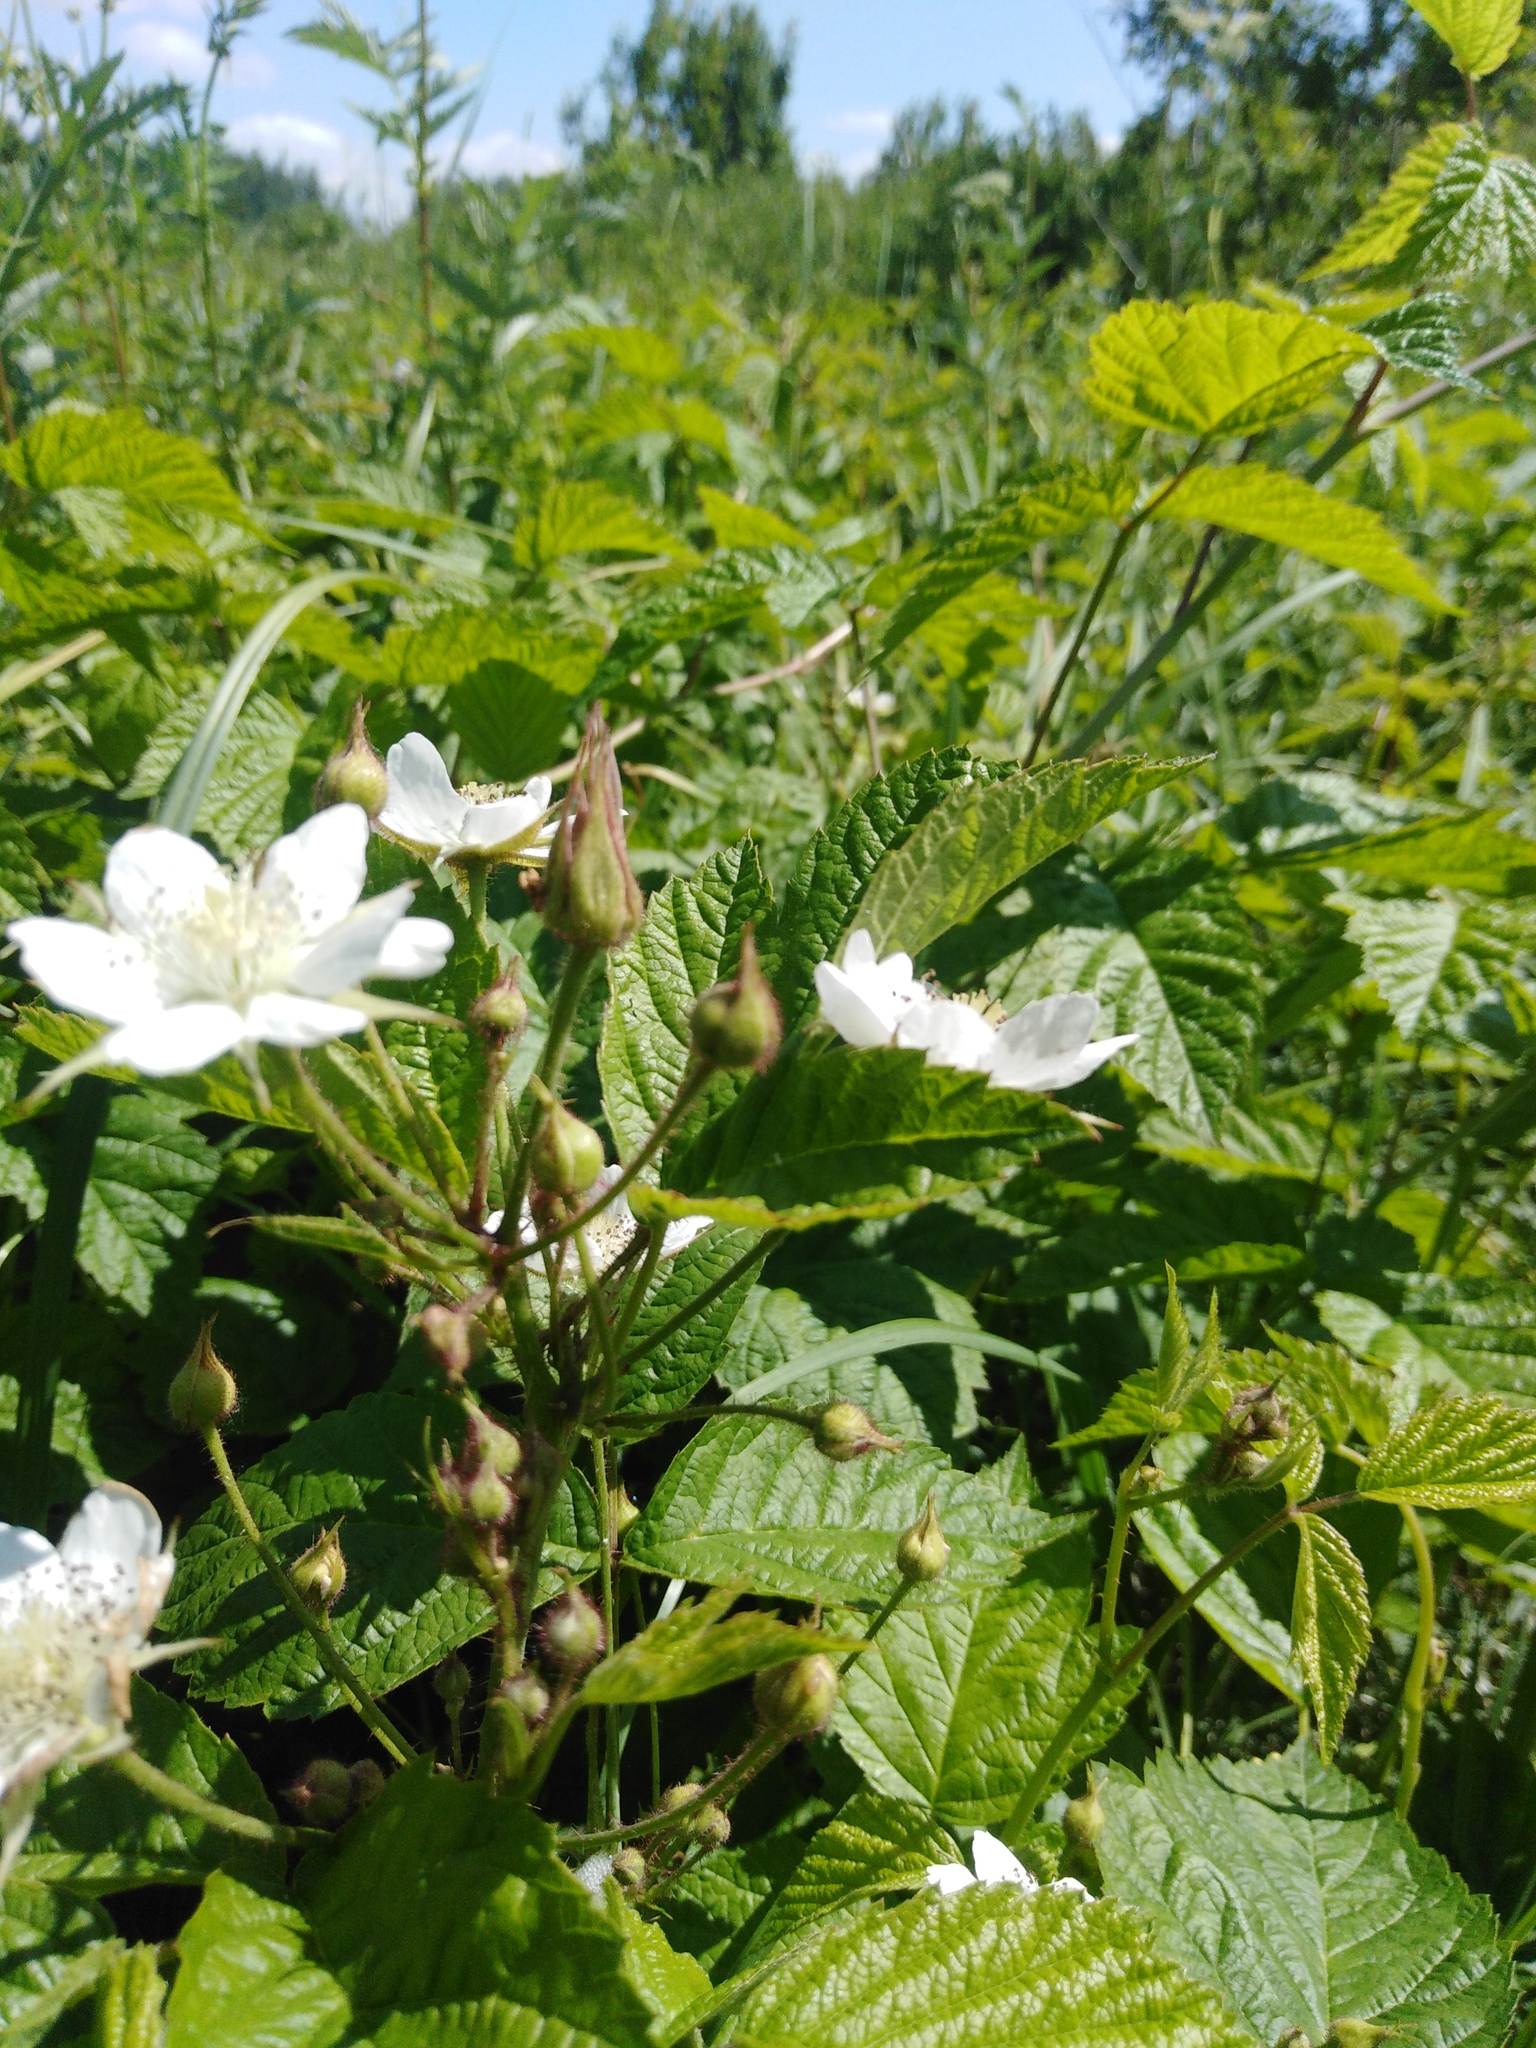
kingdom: Plantae
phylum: Tracheophyta
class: Magnoliopsida
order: Rosales
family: Rosaceae
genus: Rubus
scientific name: Rubus caesius
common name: Dewberry
